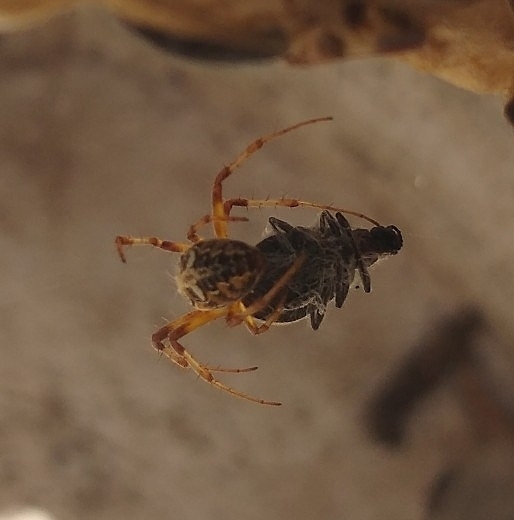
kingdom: Animalia
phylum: Arthropoda
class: Arachnida
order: Araneae
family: Araneidae
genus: Metepeira
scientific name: Metepeira
